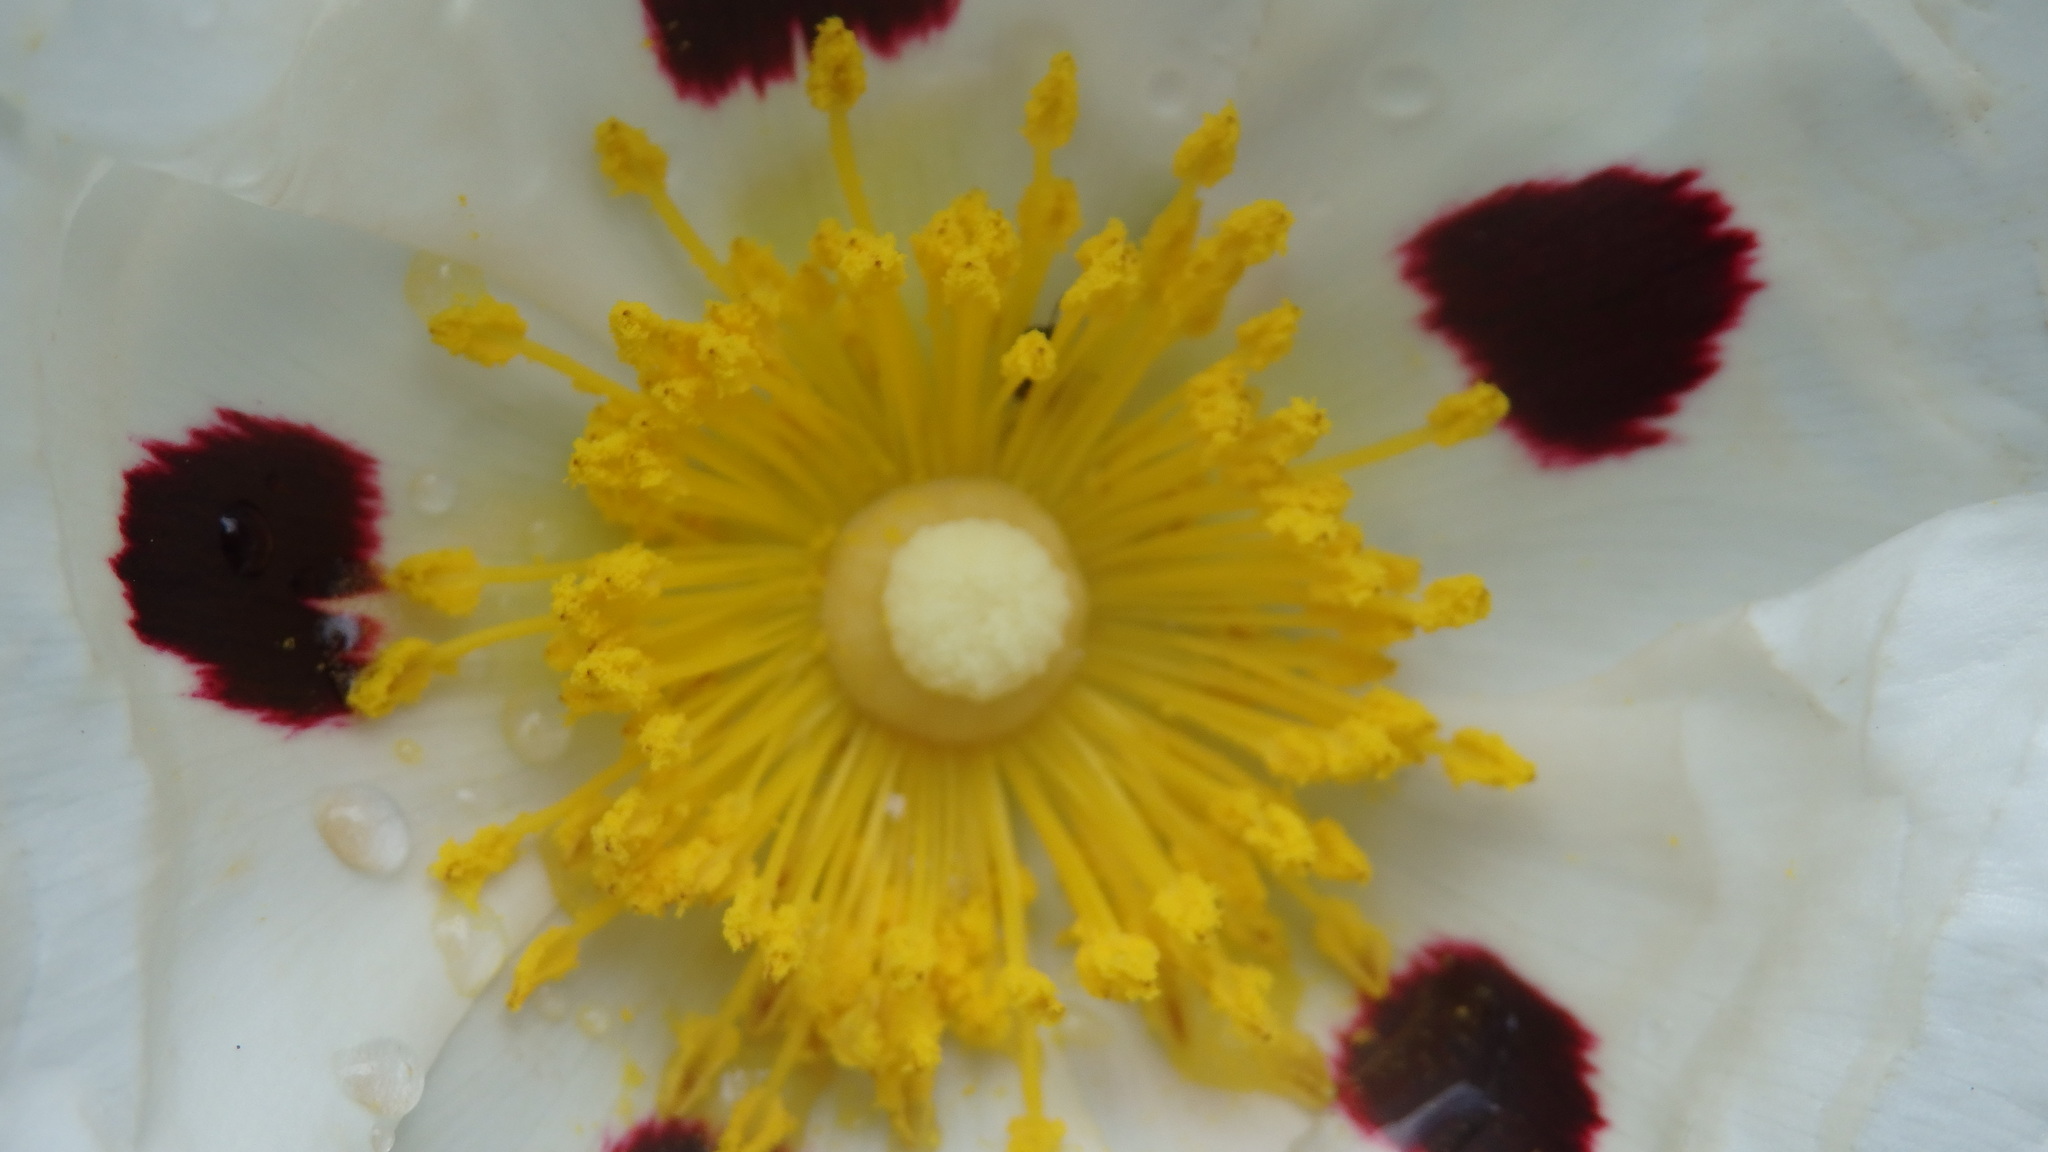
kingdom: Plantae
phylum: Tracheophyta
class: Magnoliopsida
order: Malvales
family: Cistaceae
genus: Cistus
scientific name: Cistus ladanifer
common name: Common gum cistus
